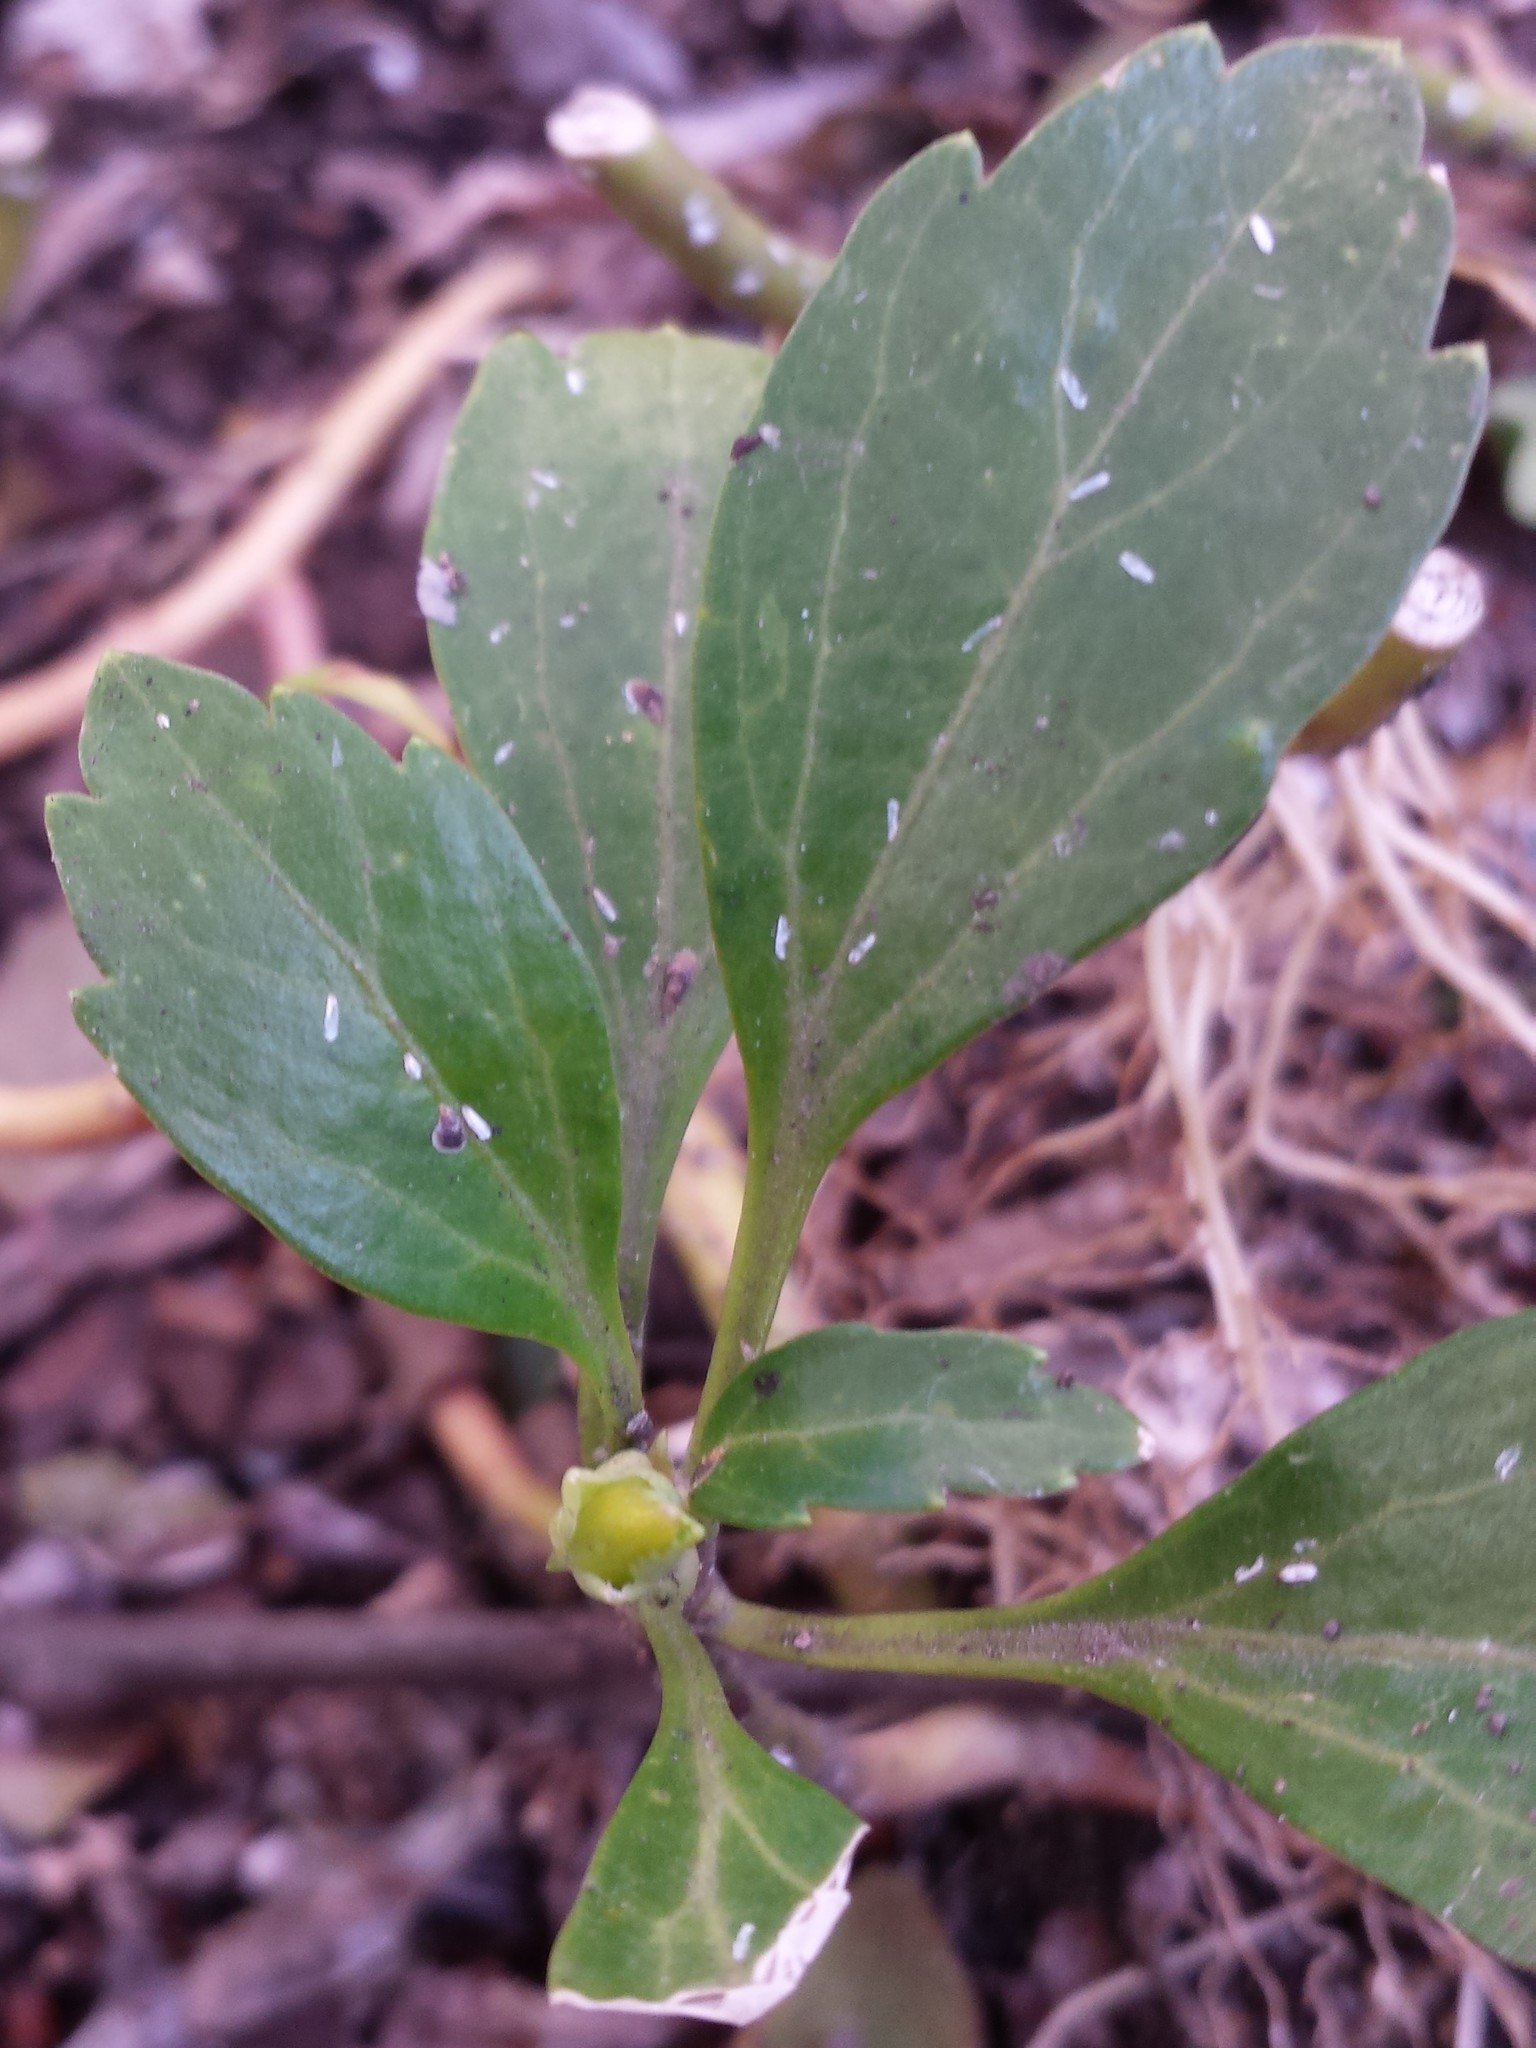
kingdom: Animalia
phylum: Arthropoda
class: Insecta
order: Hemiptera
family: Diaspididae
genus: Unaspis
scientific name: Unaspis euonymi
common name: Euonymus scale
